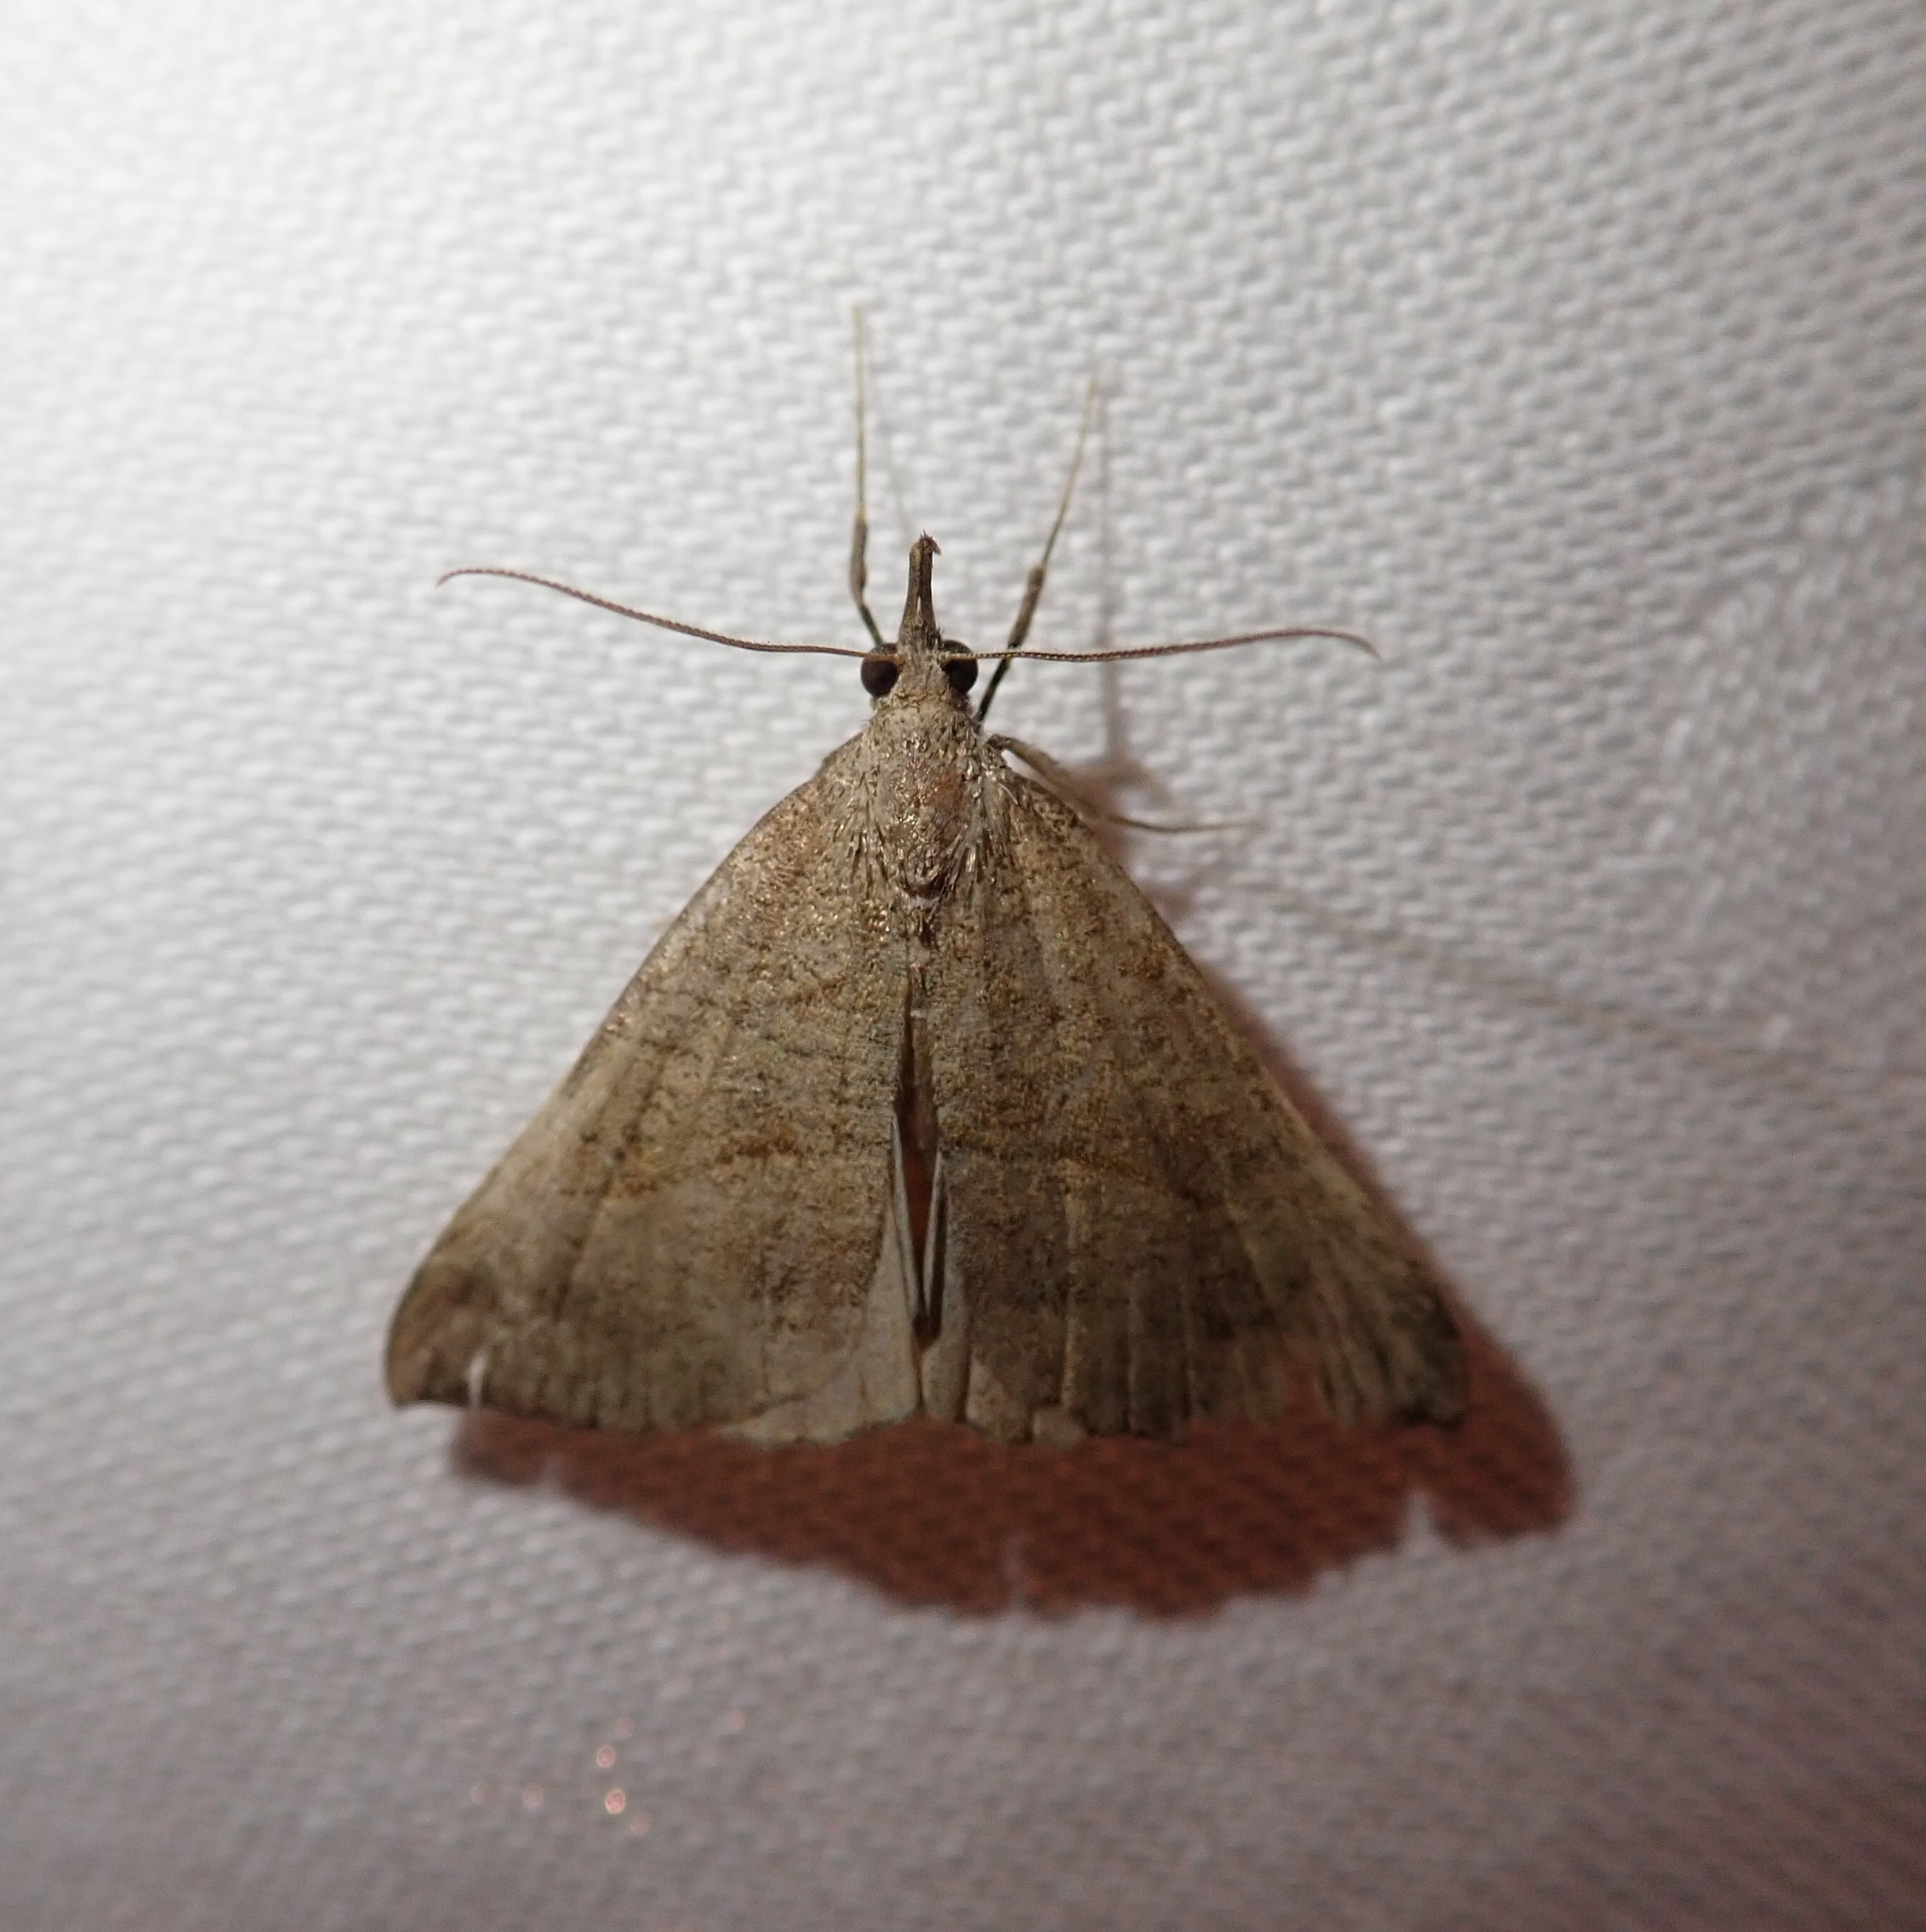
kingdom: Animalia
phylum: Arthropoda
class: Insecta
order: Lepidoptera
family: Erebidae
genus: Hypena
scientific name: Hypena proboscidalis
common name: Snout
